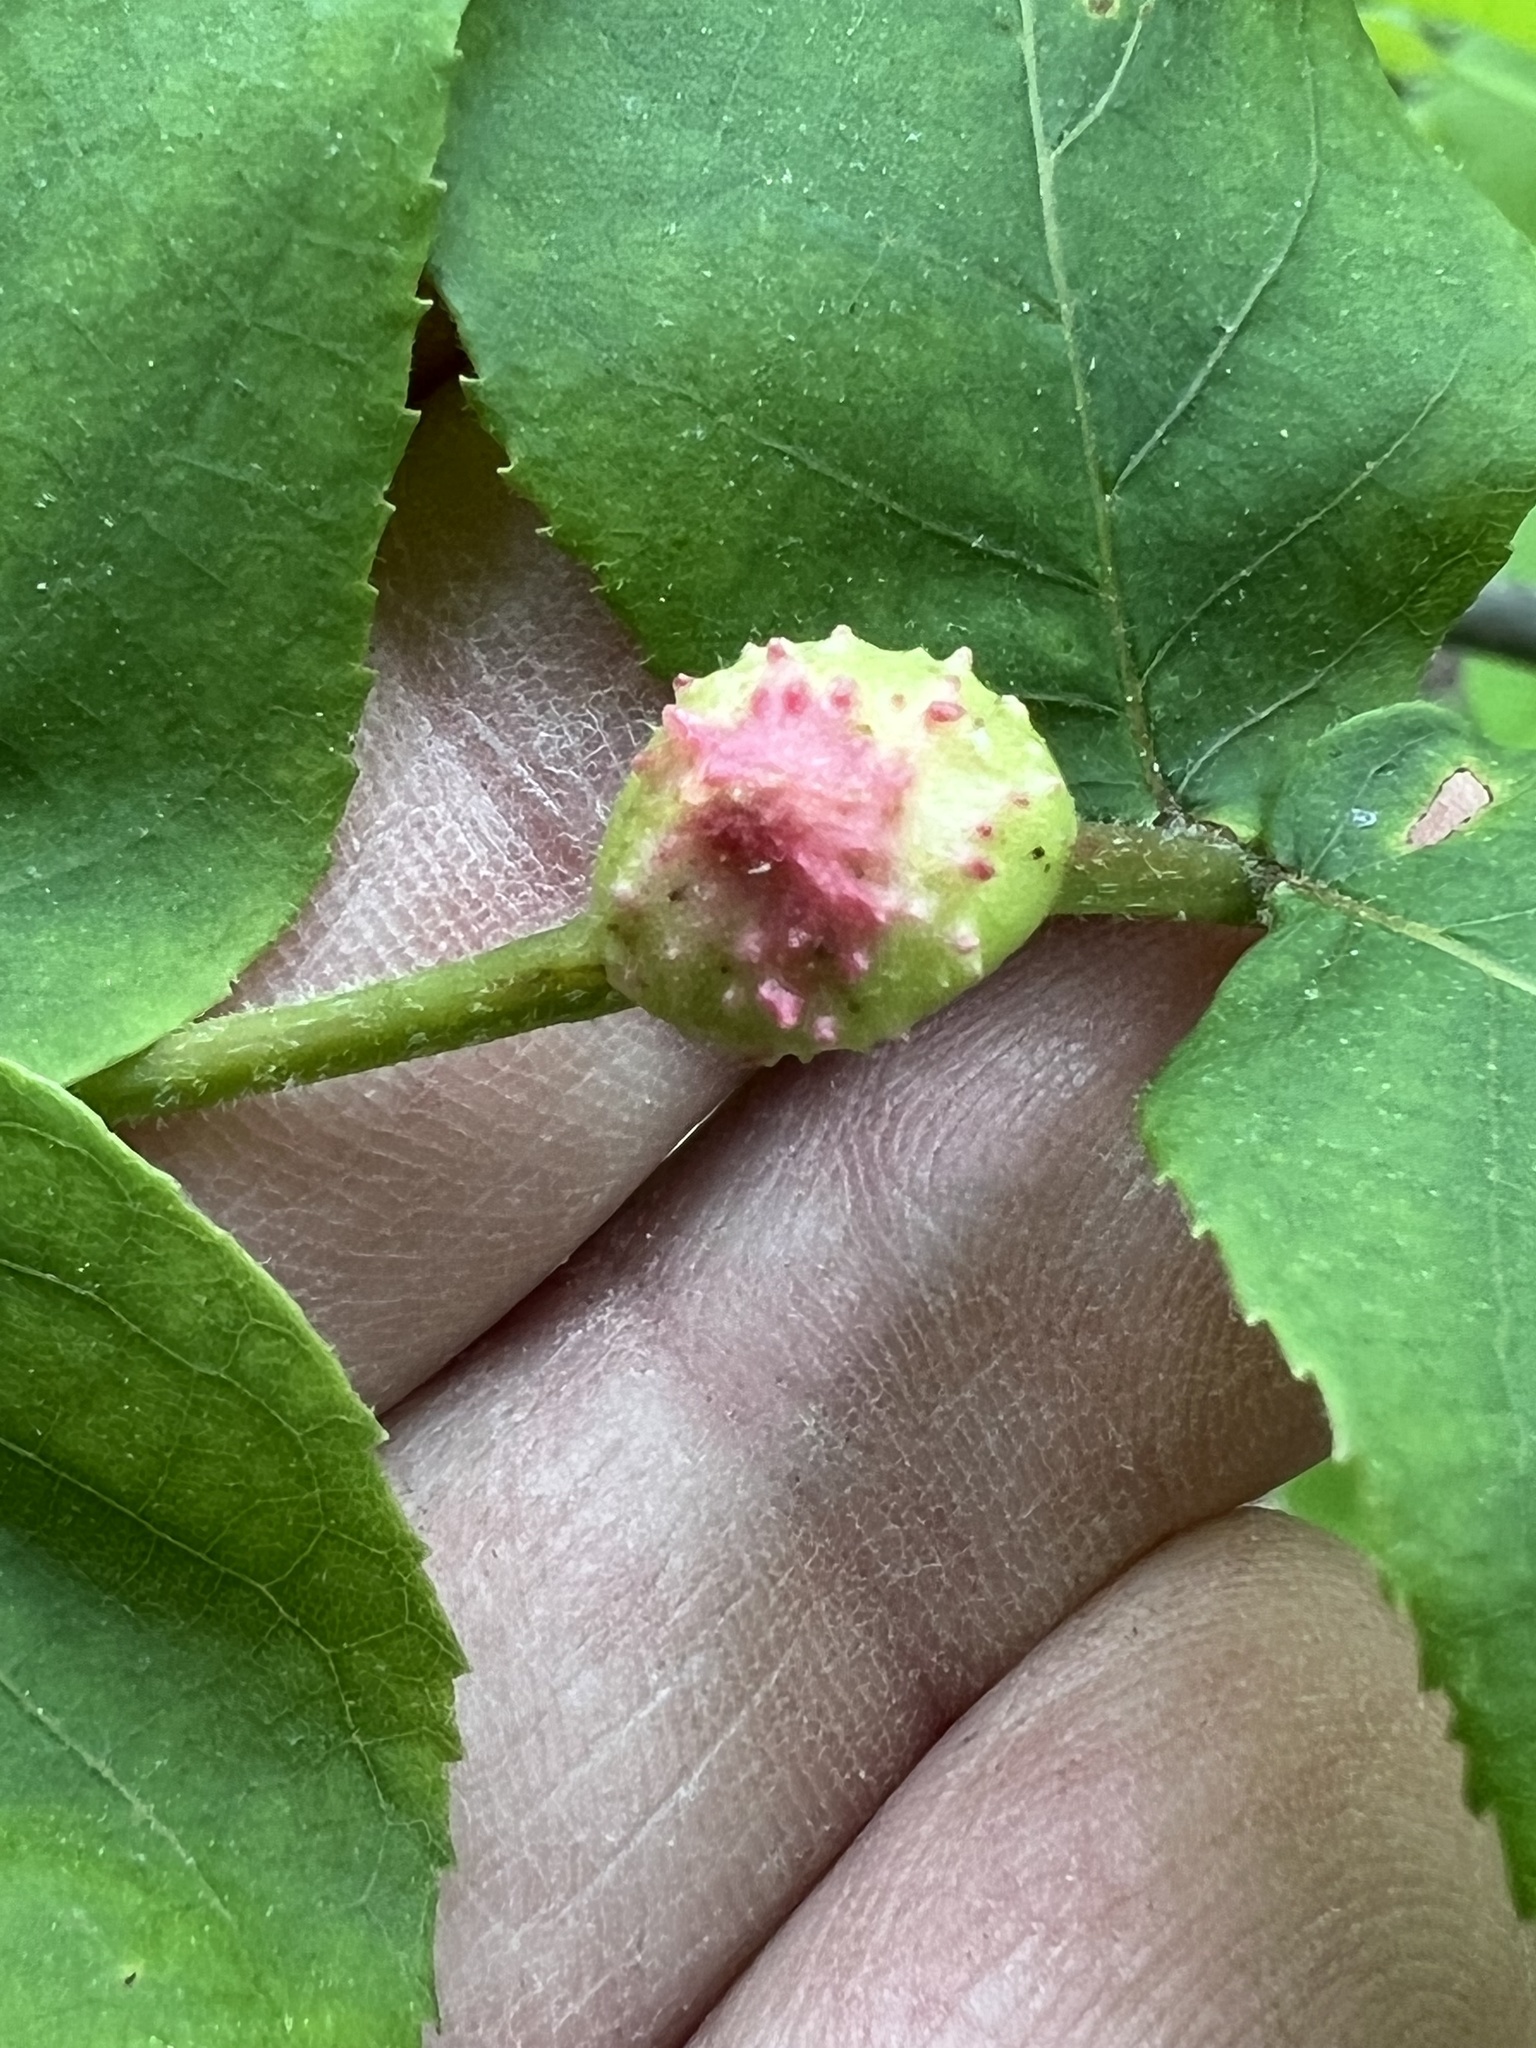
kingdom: Animalia
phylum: Arthropoda
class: Insecta
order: Hemiptera
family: Phylloxeridae
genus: Phylloxera
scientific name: Phylloxera spinosa
